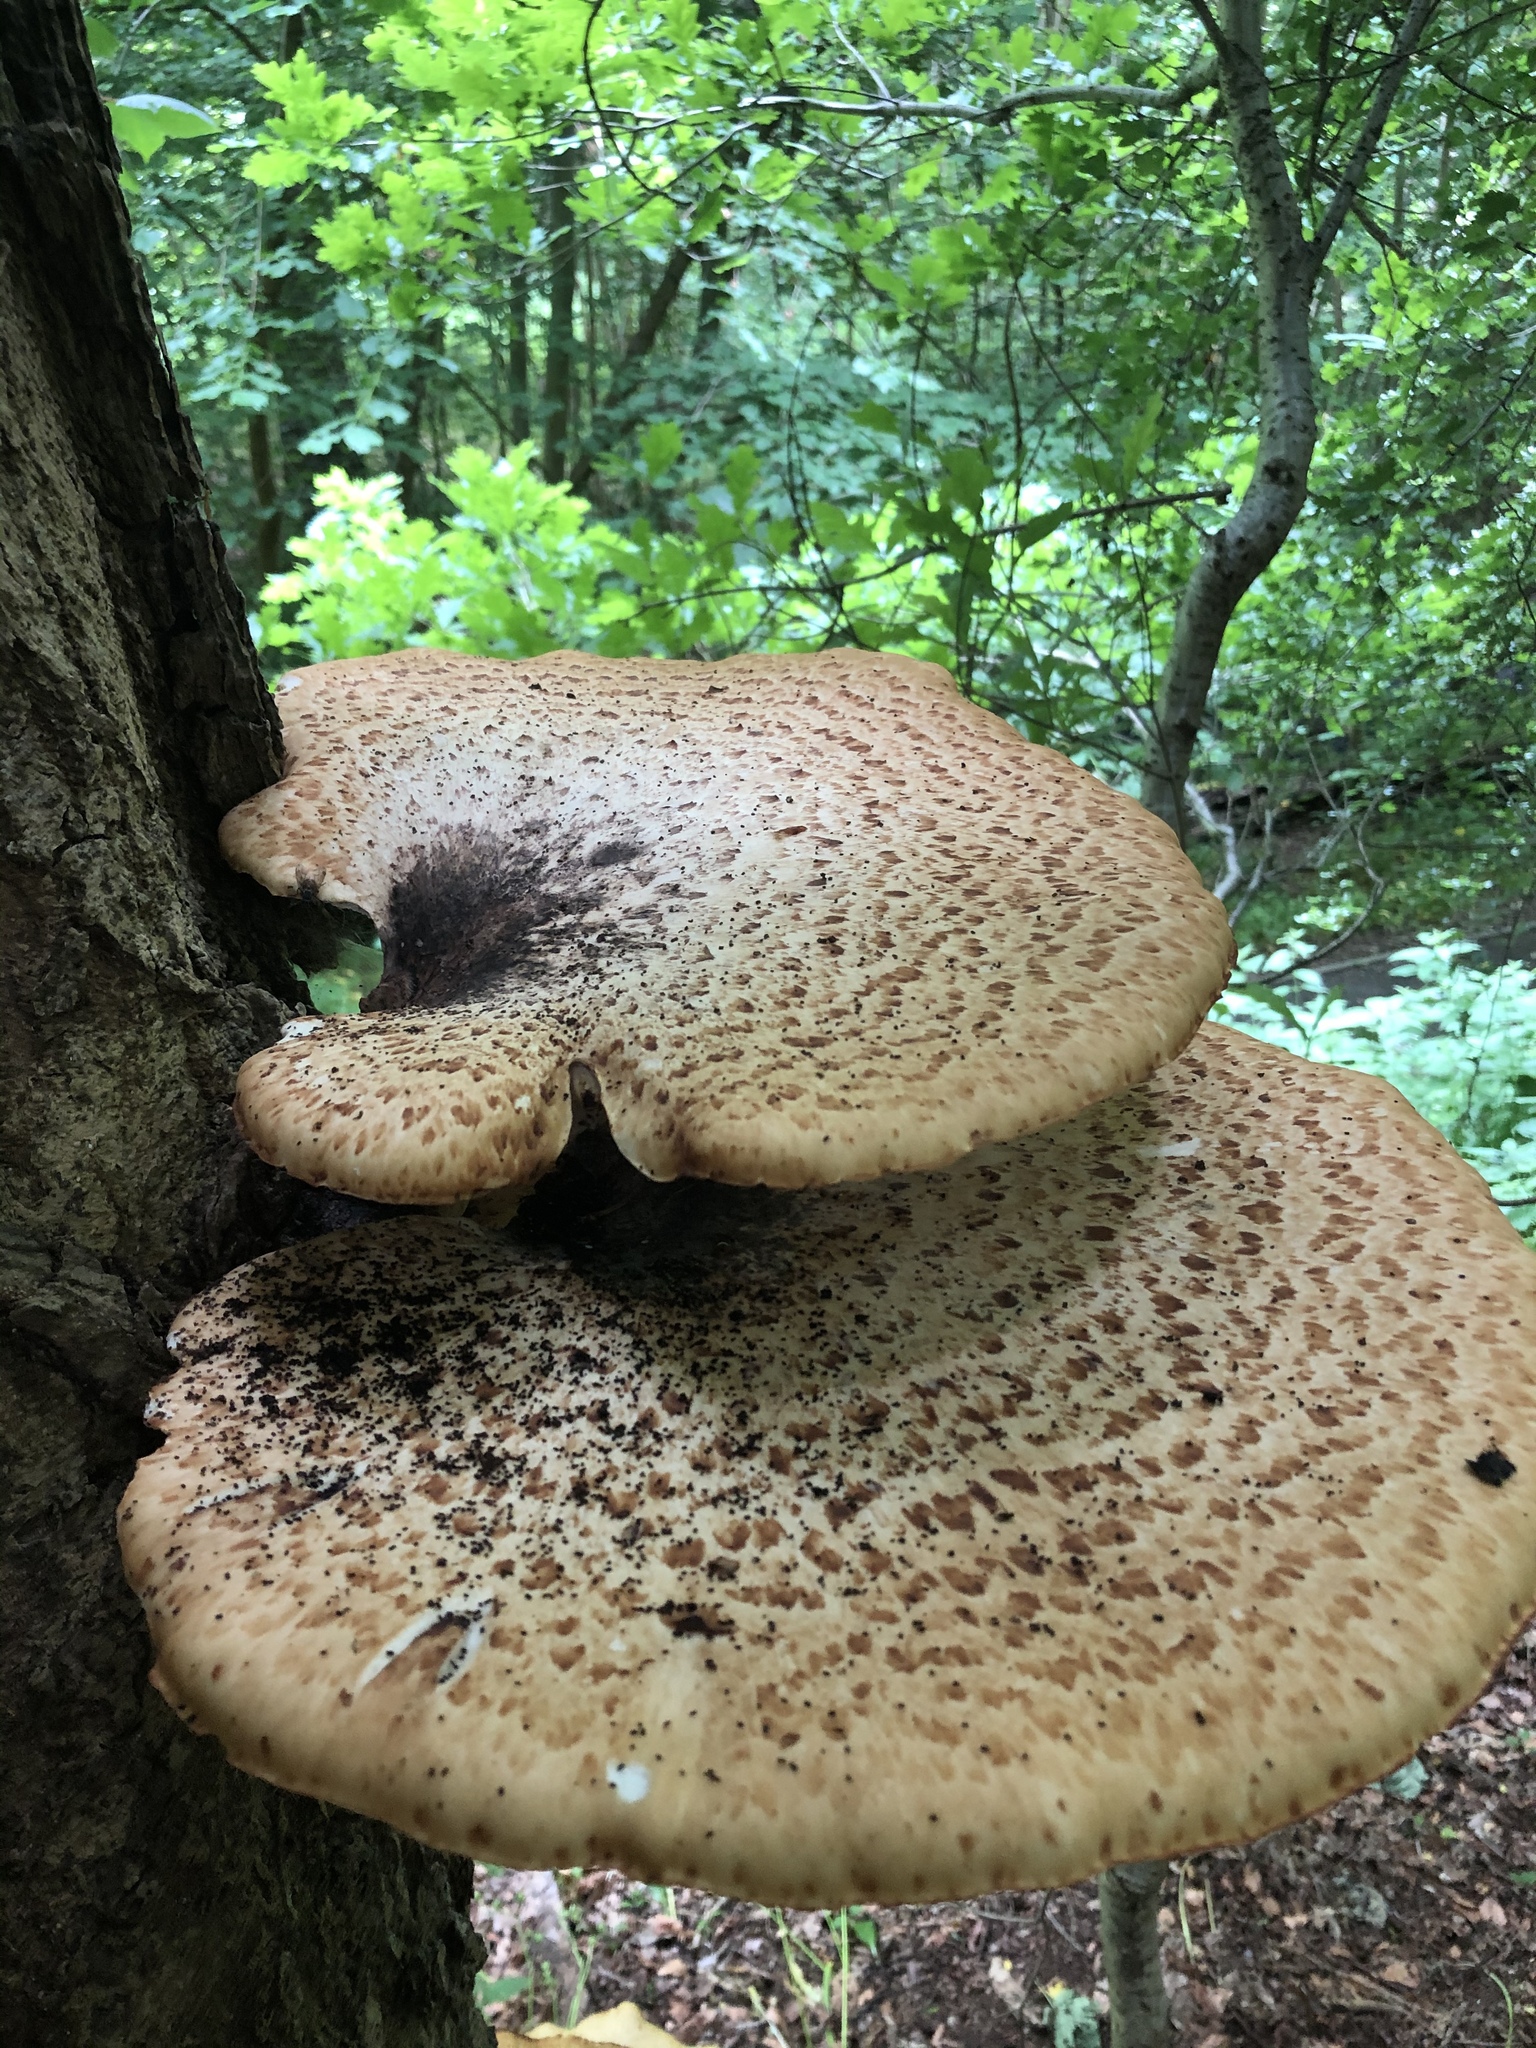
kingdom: Fungi
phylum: Basidiomycota
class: Agaricomycetes
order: Polyporales
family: Polyporaceae
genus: Cerioporus
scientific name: Cerioporus squamosus
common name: Dryad's saddle
